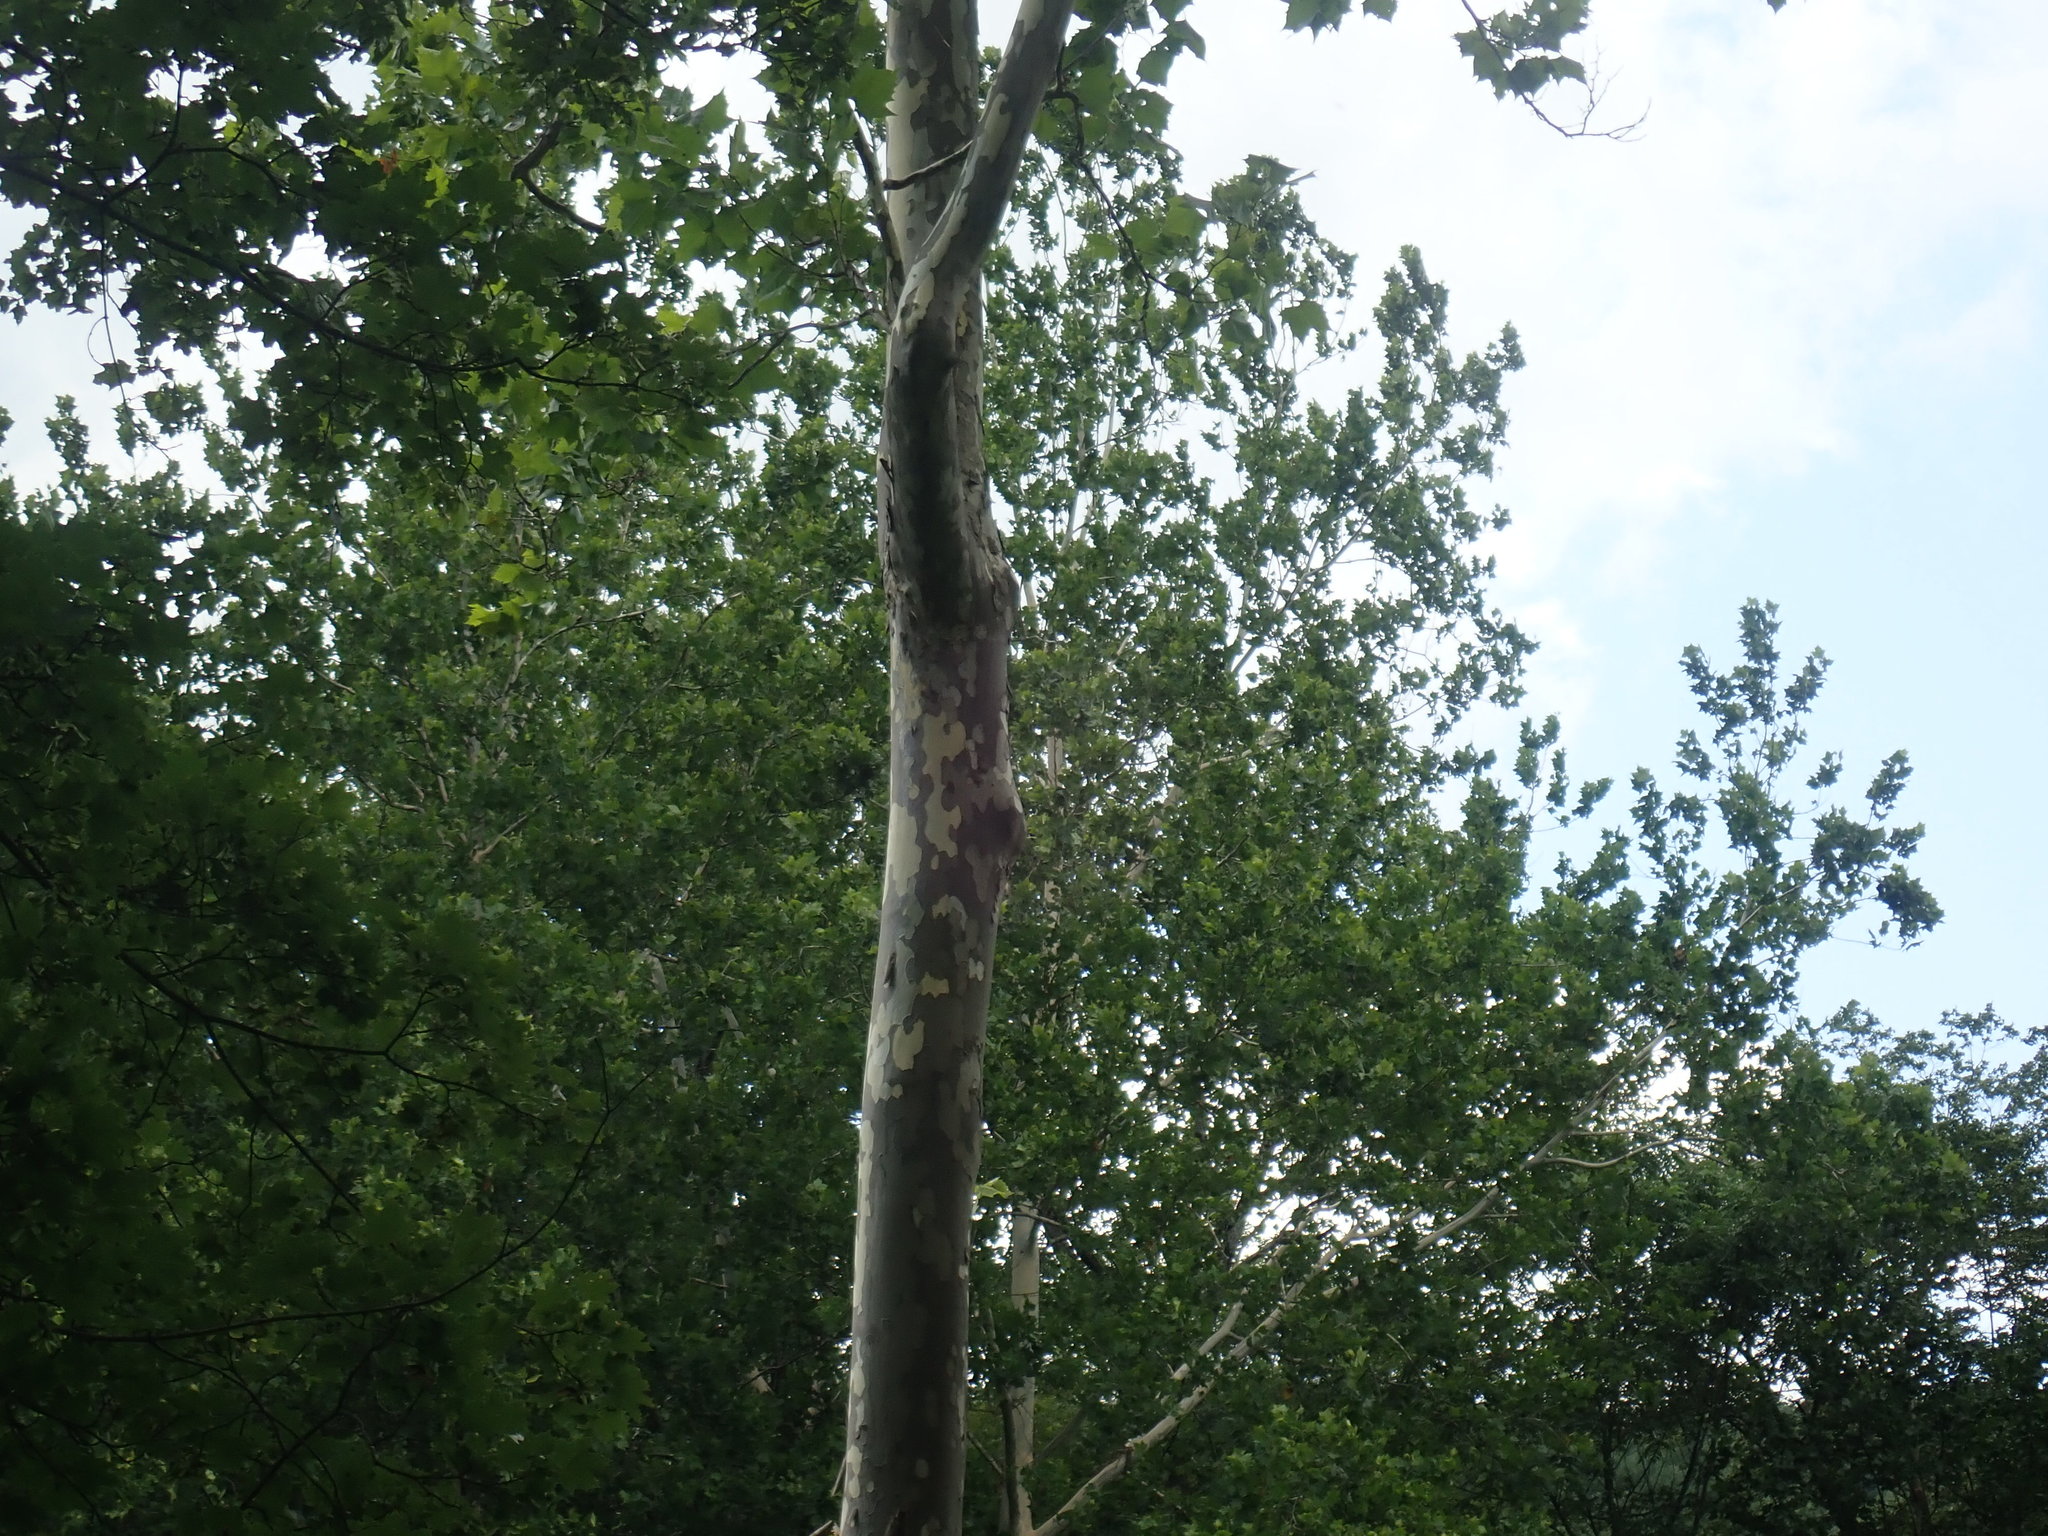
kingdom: Plantae
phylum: Tracheophyta
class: Magnoliopsida
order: Proteales
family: Platanaceae
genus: Platanus
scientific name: Platanus occidentalis
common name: American sycamore
